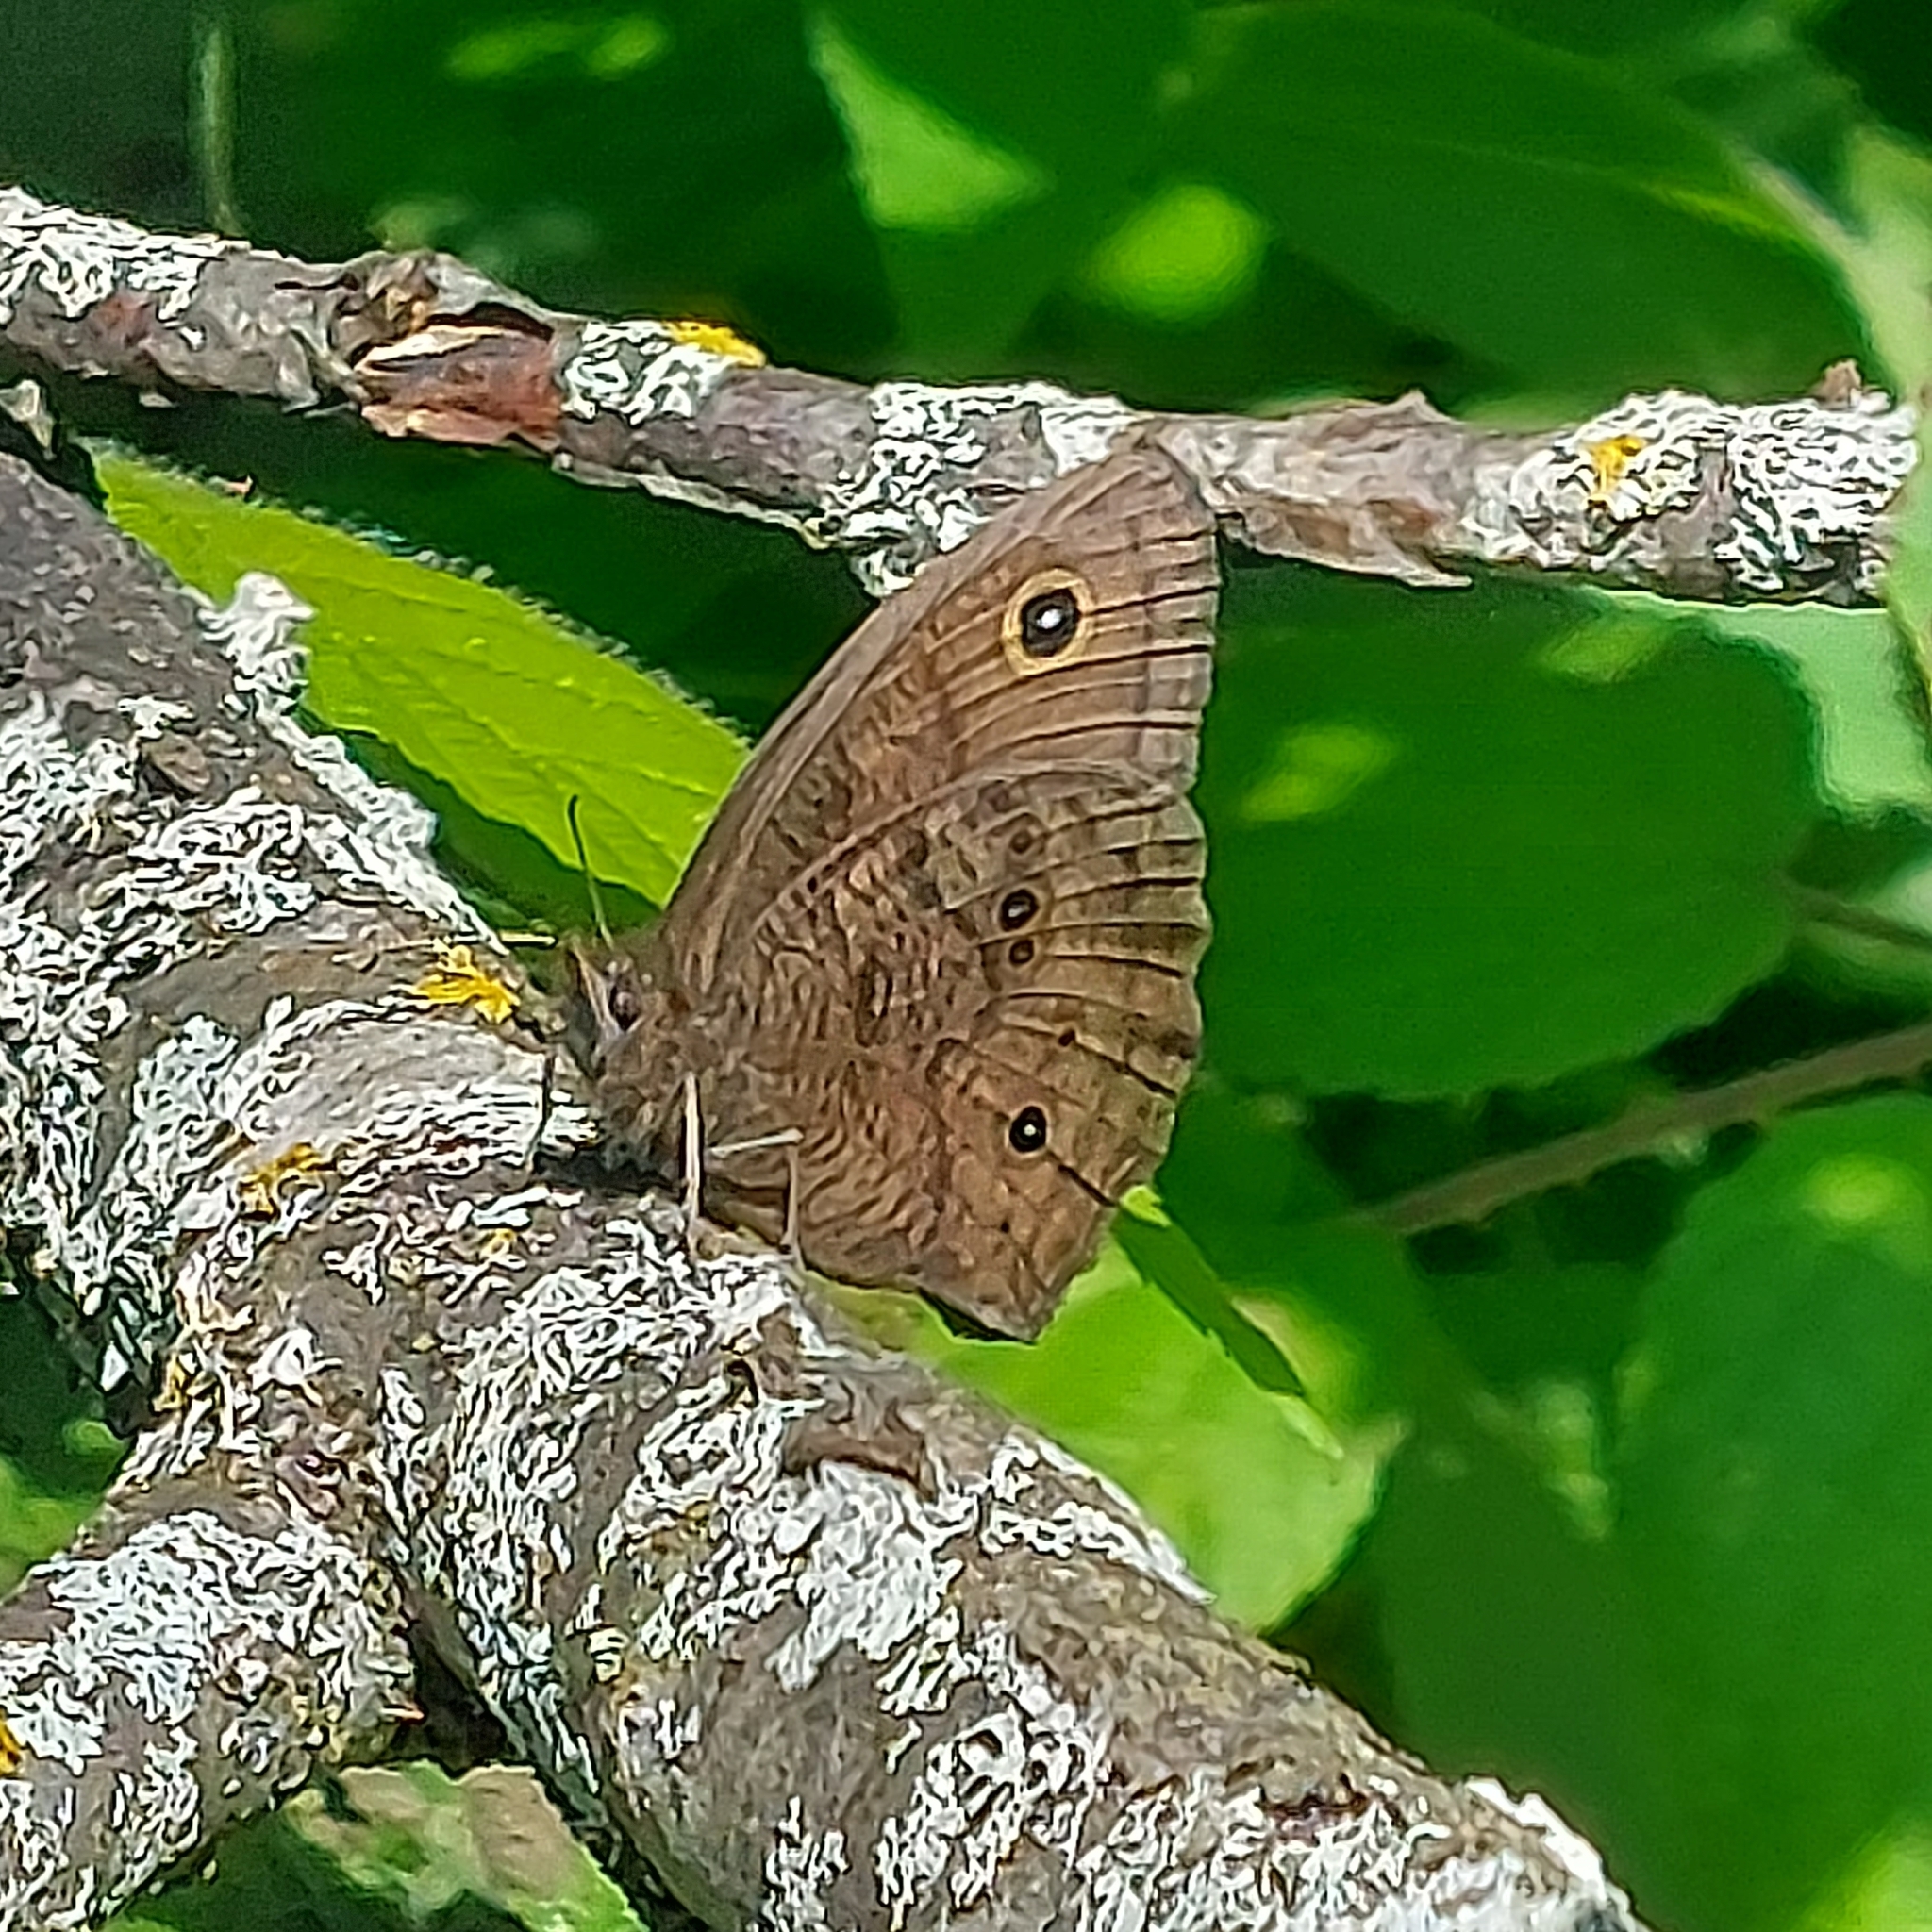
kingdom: Animalia
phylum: Arthropoda
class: Insecta
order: Lepidoptera
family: Nymphalidae
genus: Cercyonis
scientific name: Cercyonis pegala
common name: Common wood-nymph
